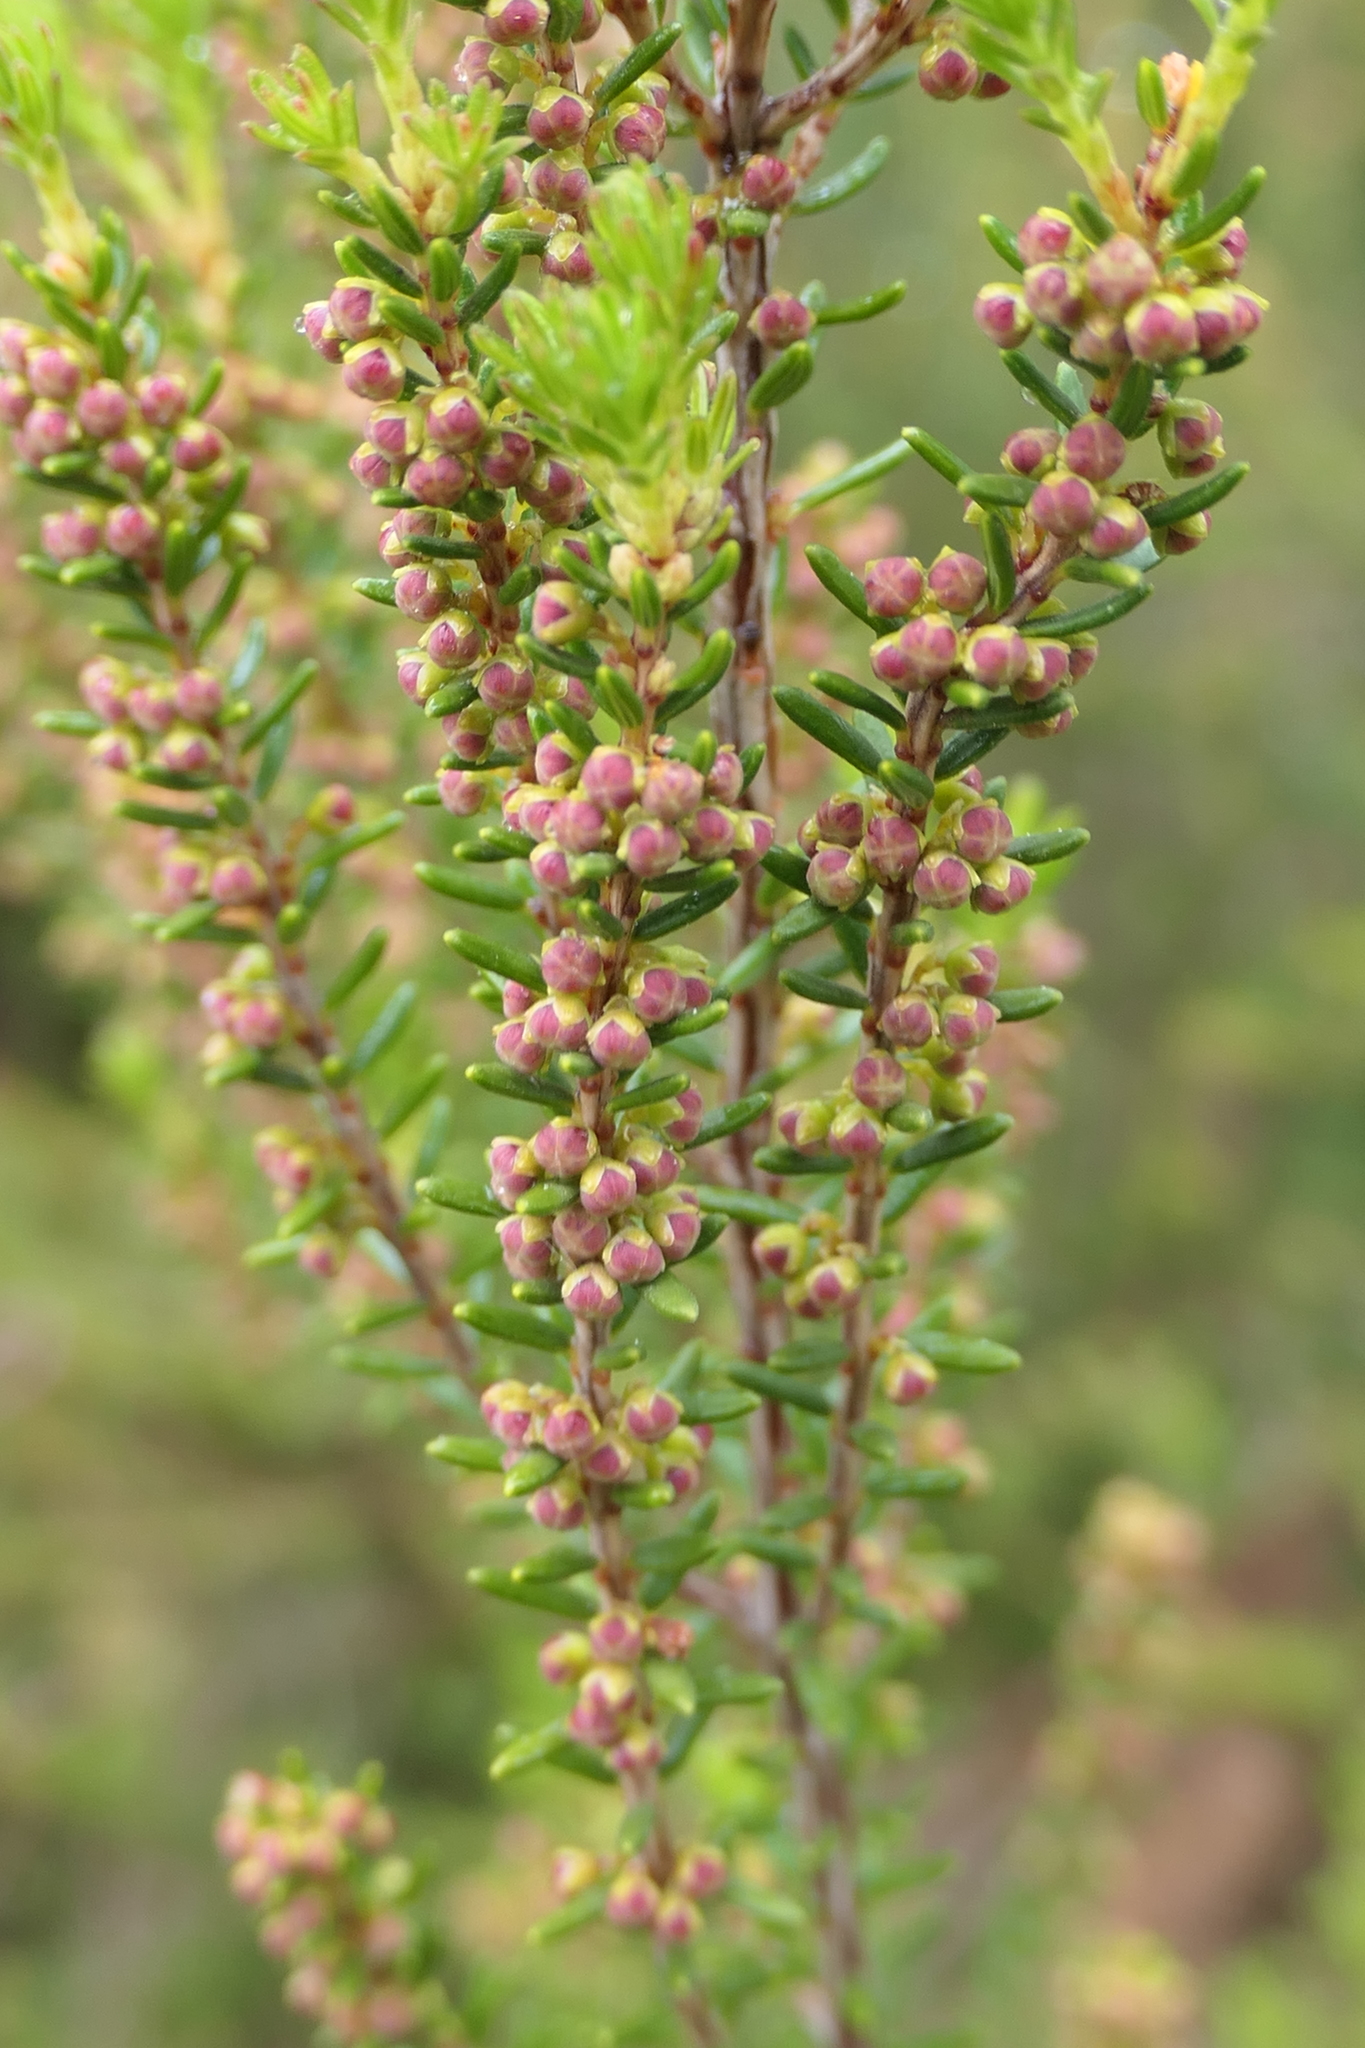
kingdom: Plantae
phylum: Tracheophyta
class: Magnoliopsida
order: Ericales
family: Ericaceae
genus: Erica
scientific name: Erica scoparia
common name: Green heather
